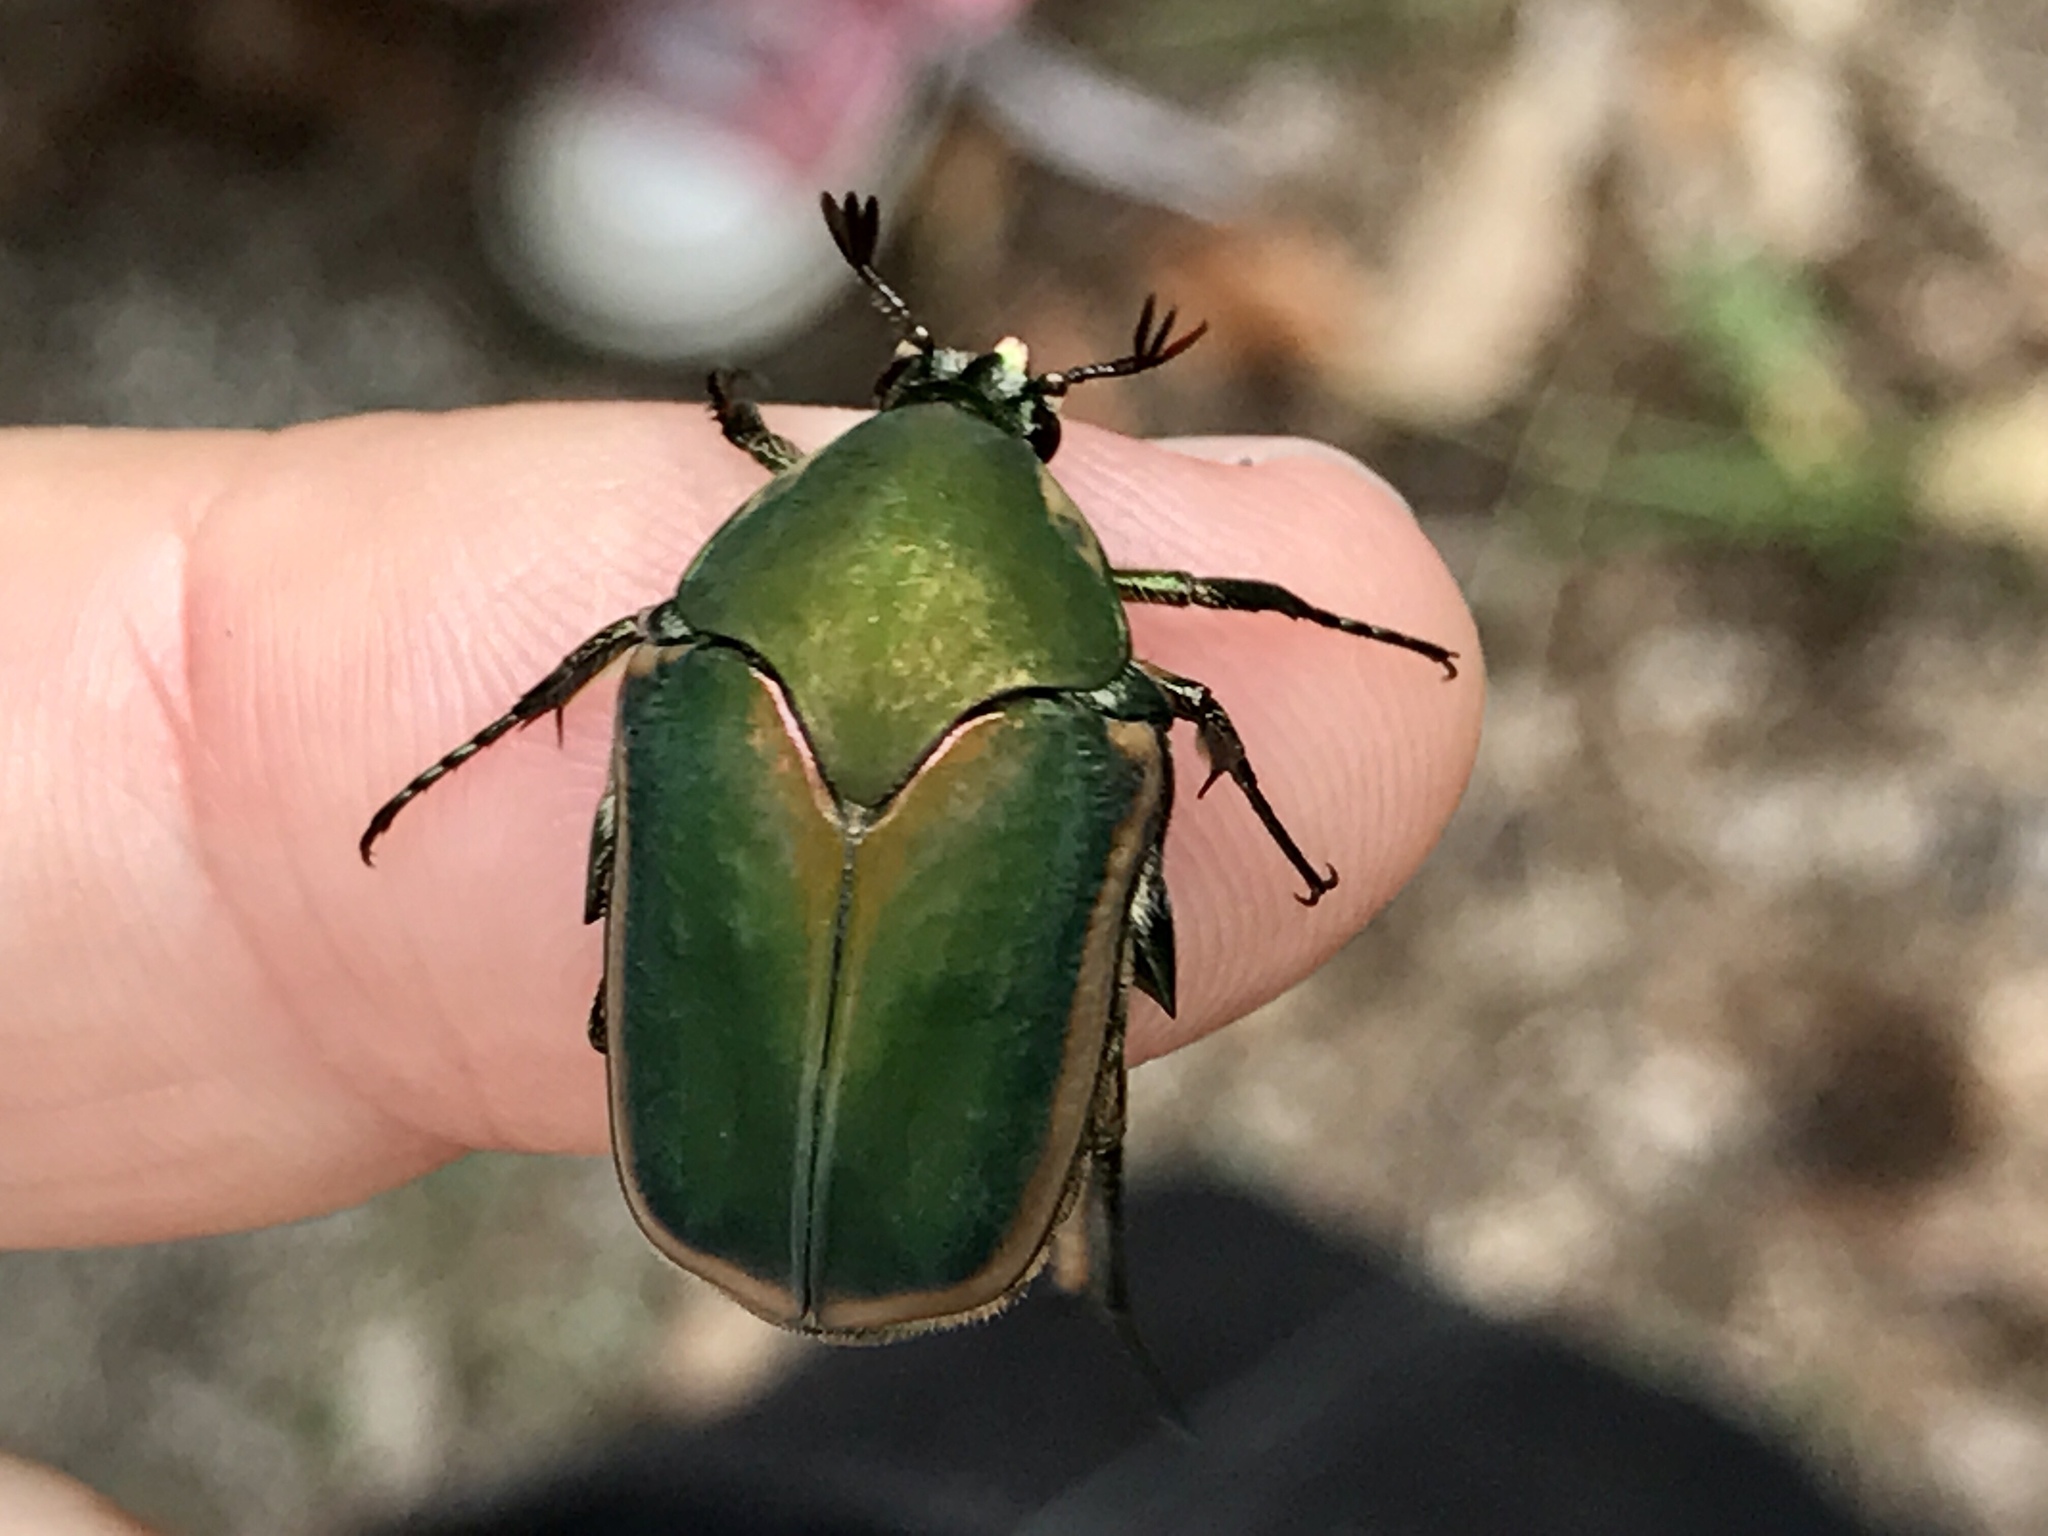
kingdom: Animalia
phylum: Arthropoda
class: Insecta
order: Coleoptera
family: Scarabaeidae
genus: Cotinis
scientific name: Cotinis nitida
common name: Common green june beetle
